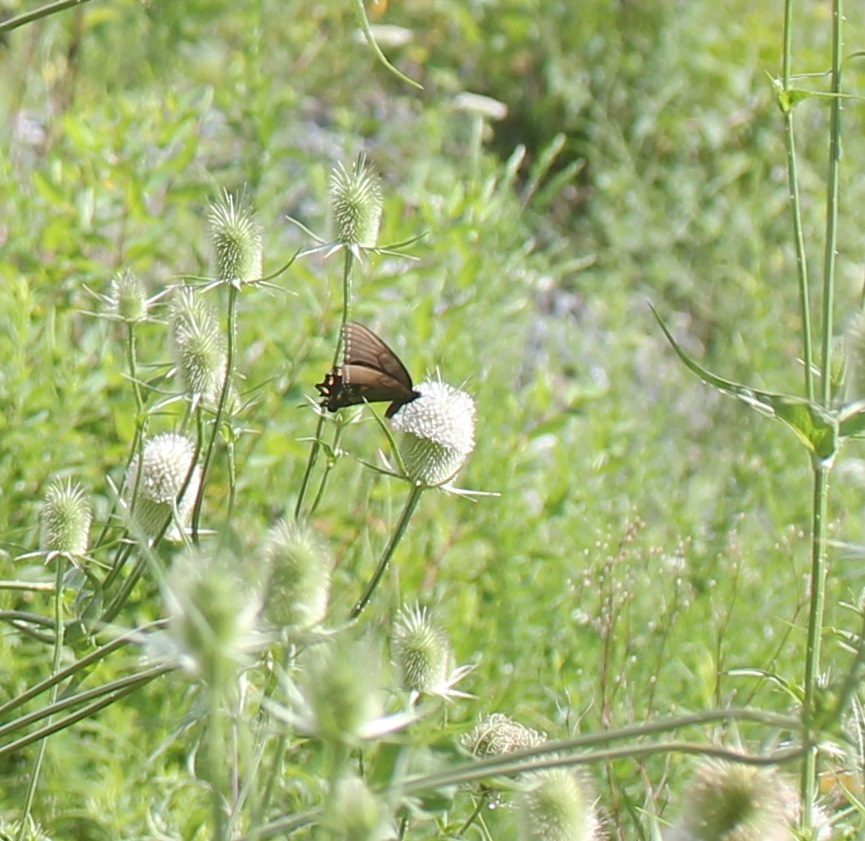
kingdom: Animalia
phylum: Arthropoda
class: Insecta
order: Lepidoptera
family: Papilionidae
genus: Papilio
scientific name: Papilio glaucus
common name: Tiger swallowtail
